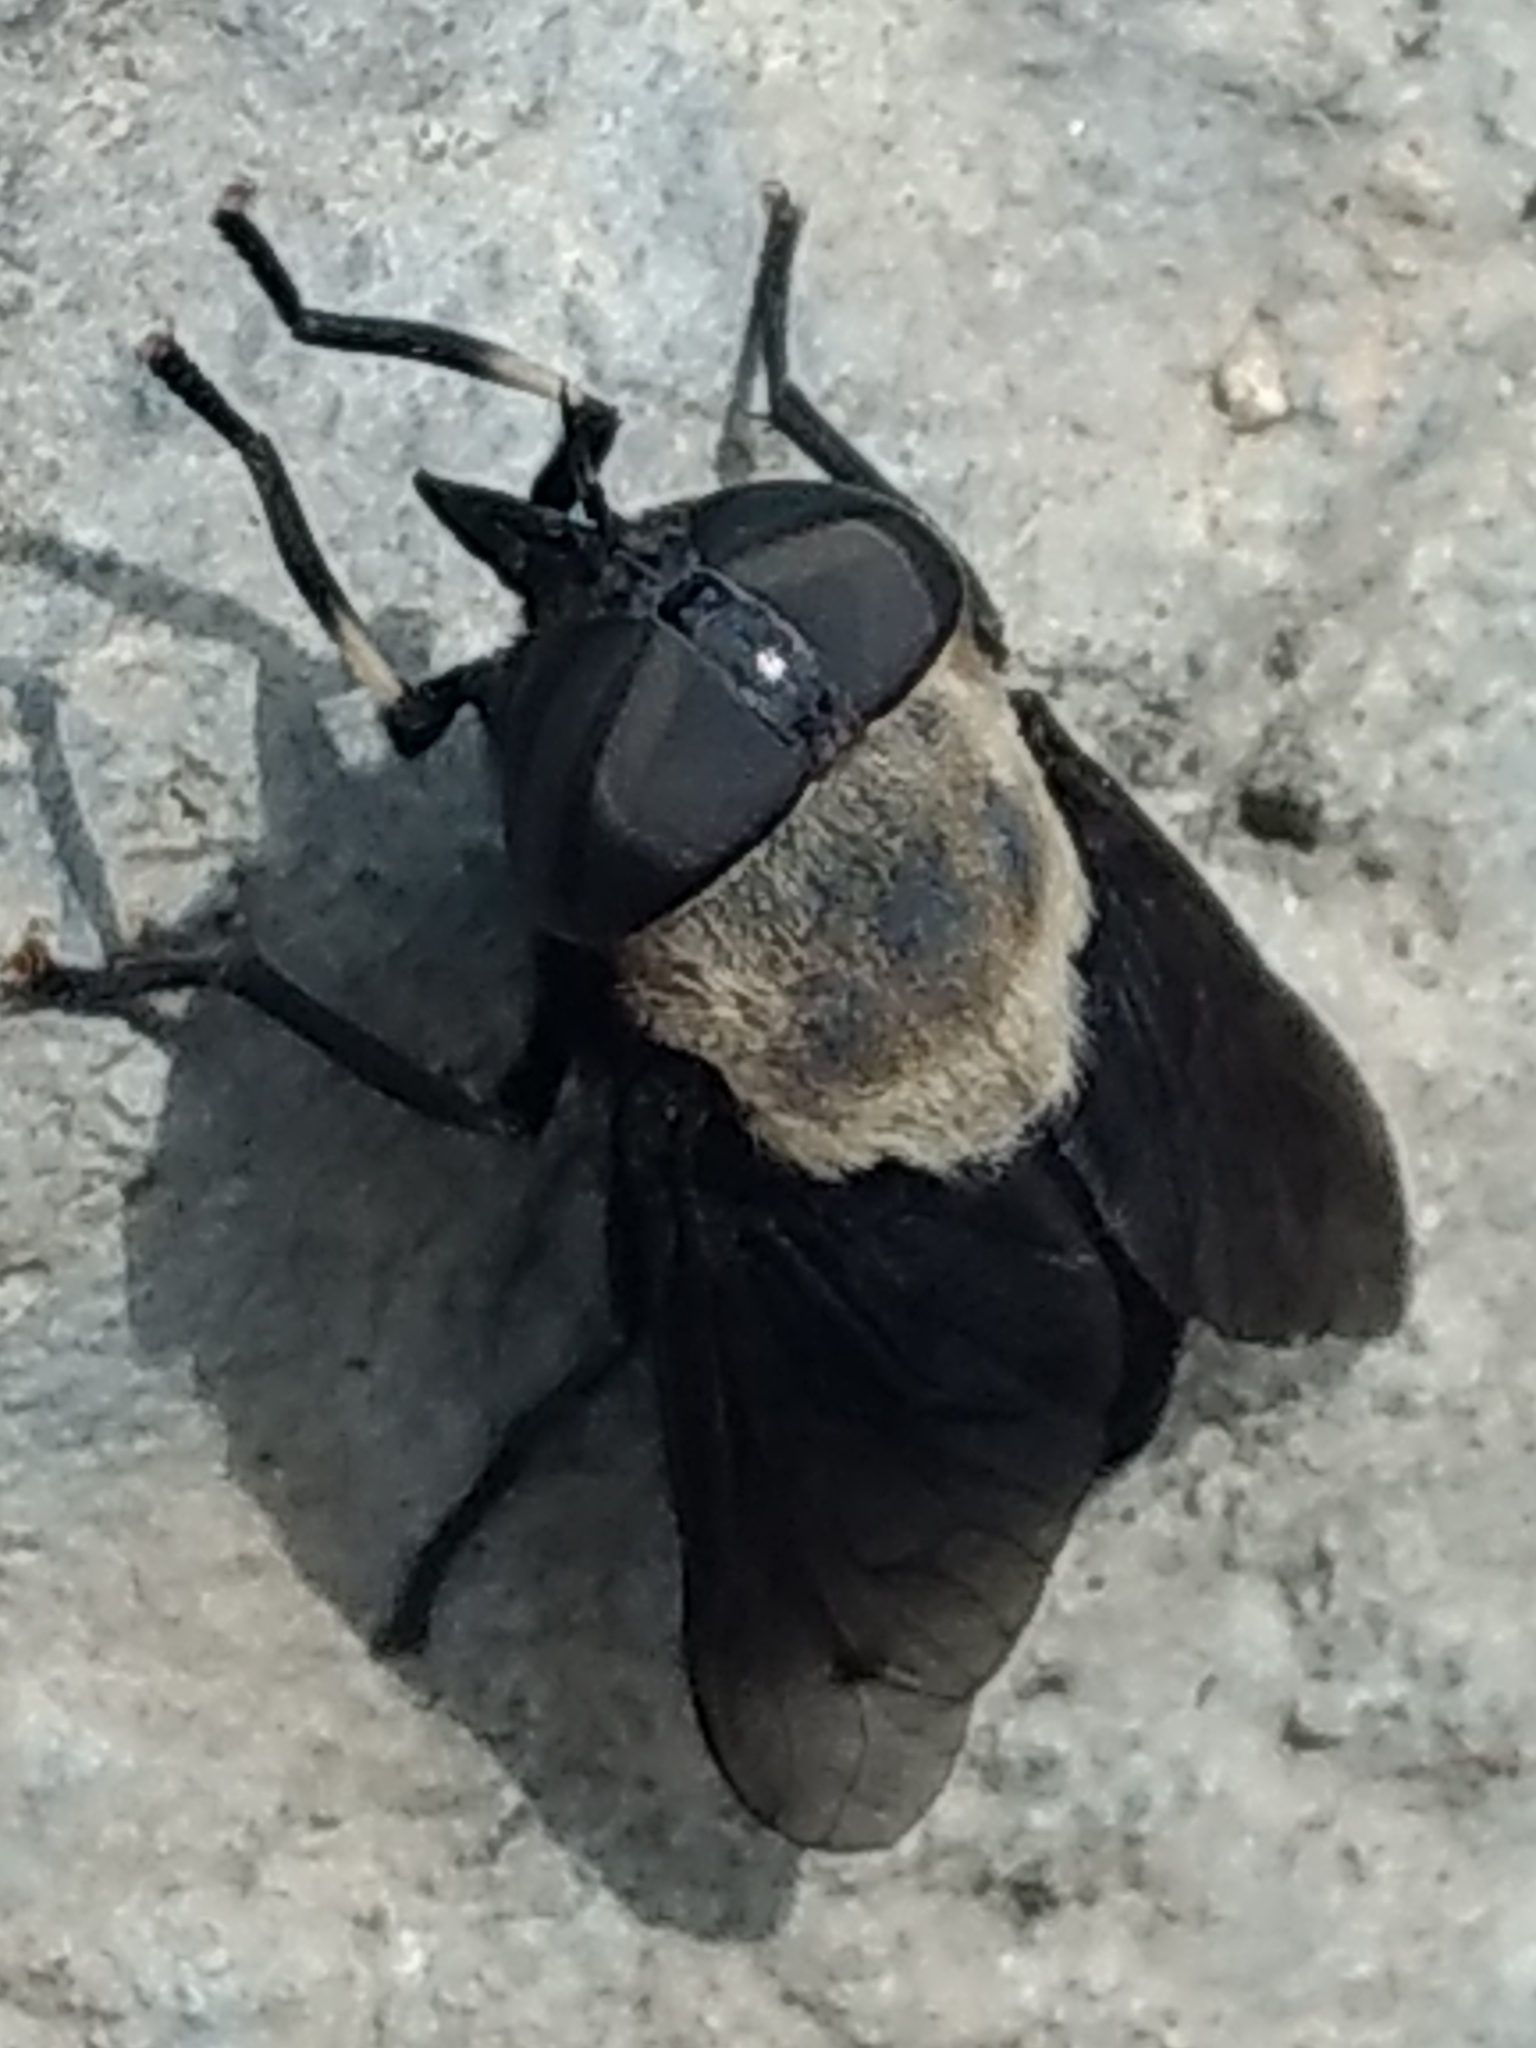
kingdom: Animalia
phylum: Arthropoda
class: Insecta
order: Diptera
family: Tabanidae
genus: Tabanus
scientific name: Tabanus punctifer
